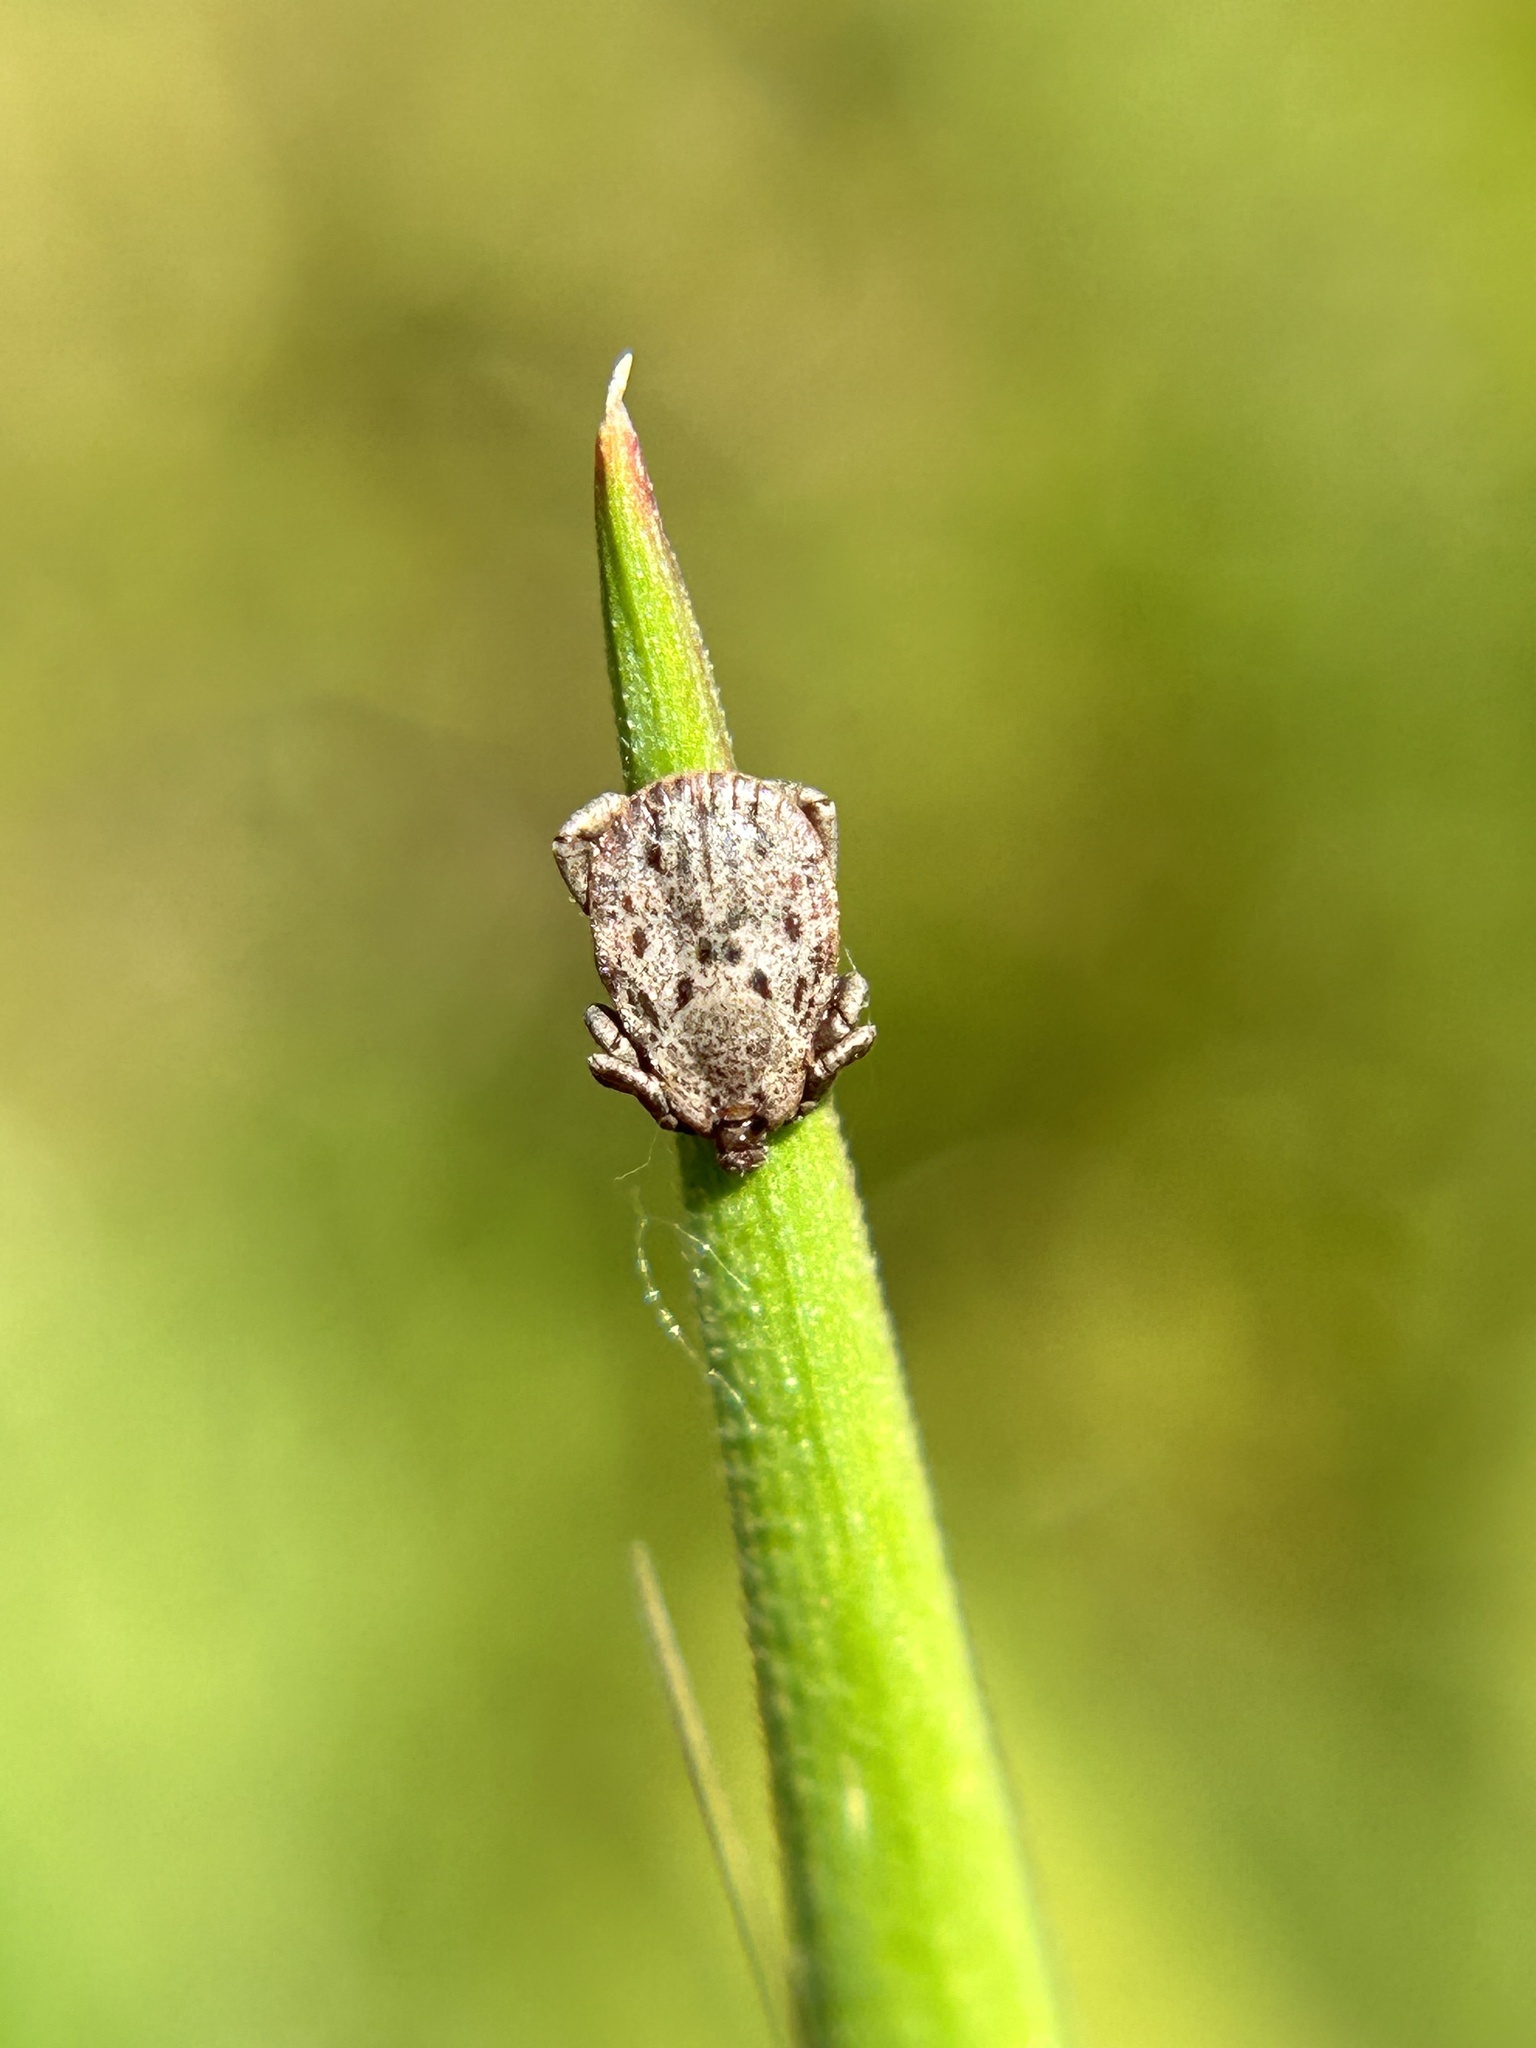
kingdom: Animalia
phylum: Arthropoda
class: Arachnida
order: Ixodida
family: Ixodidae
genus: Dermacentor
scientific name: Dermacentor occidentalis
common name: Net tick
